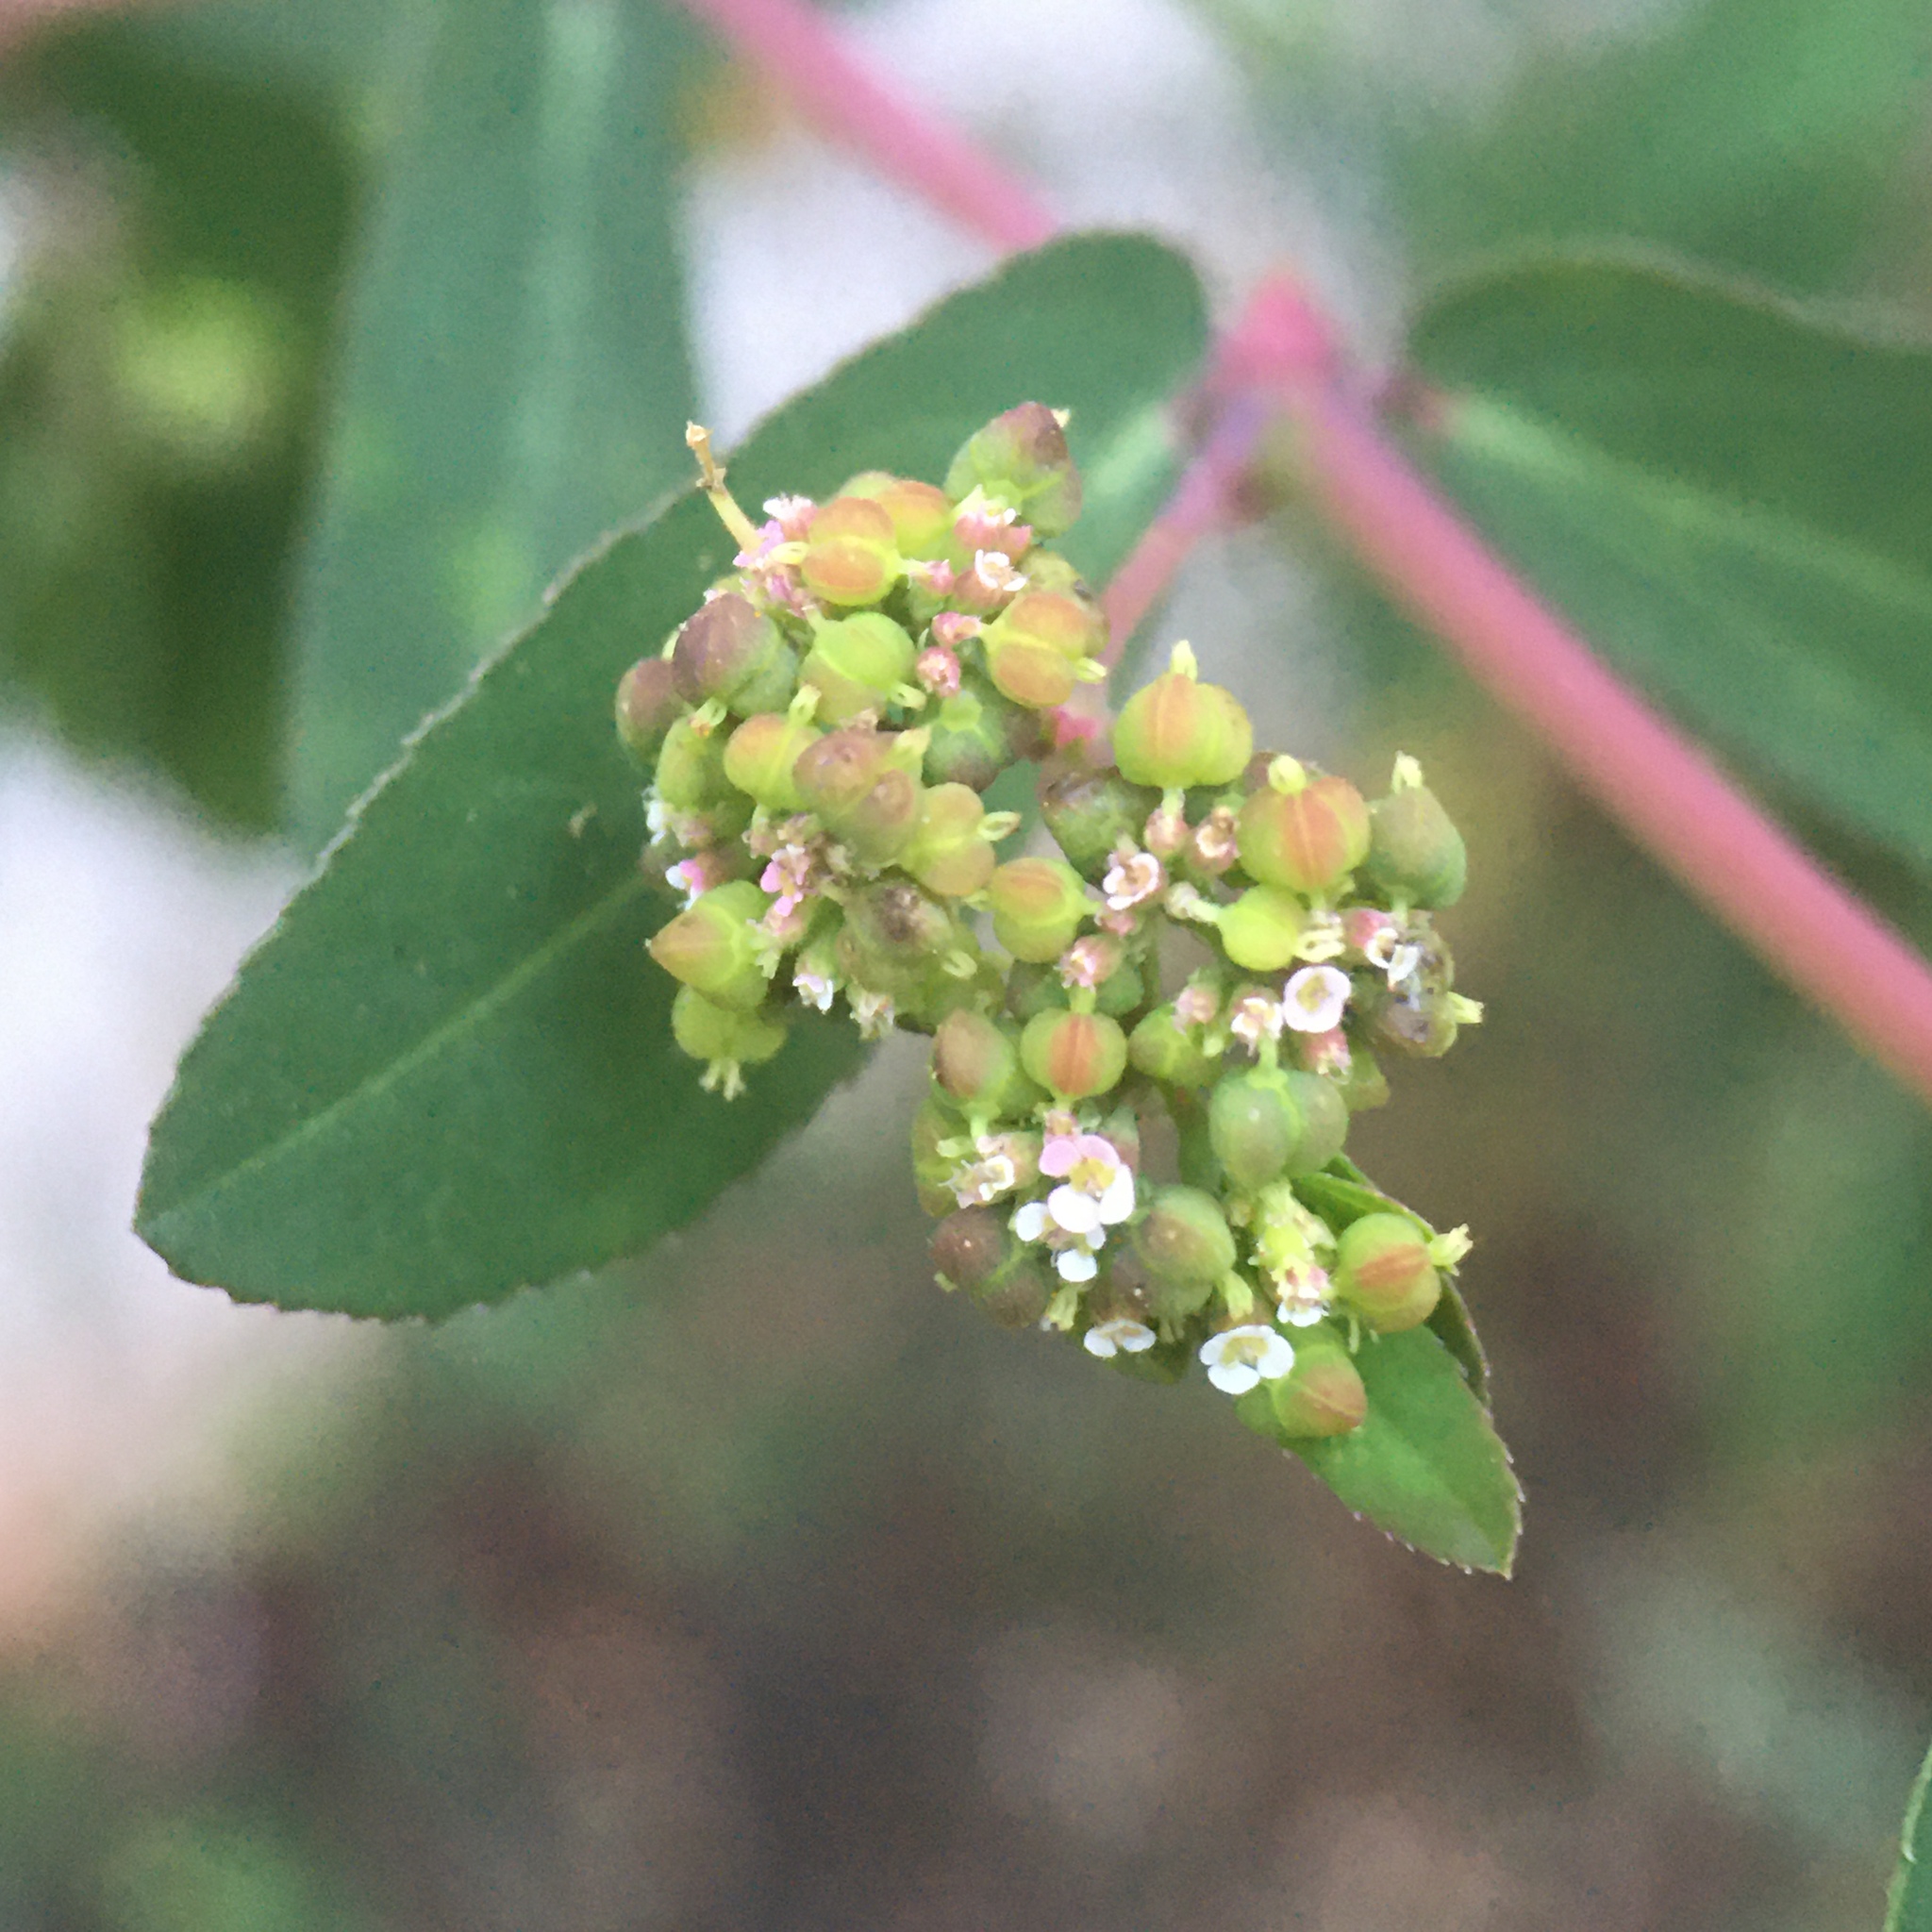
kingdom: Plantae
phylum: Tracheophyta
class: Magnoliopsida
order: Malpighiales
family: Euphorbiaceae
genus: Euphorbia
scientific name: Euphorbia hypericifolia
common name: Graceful sandmat
